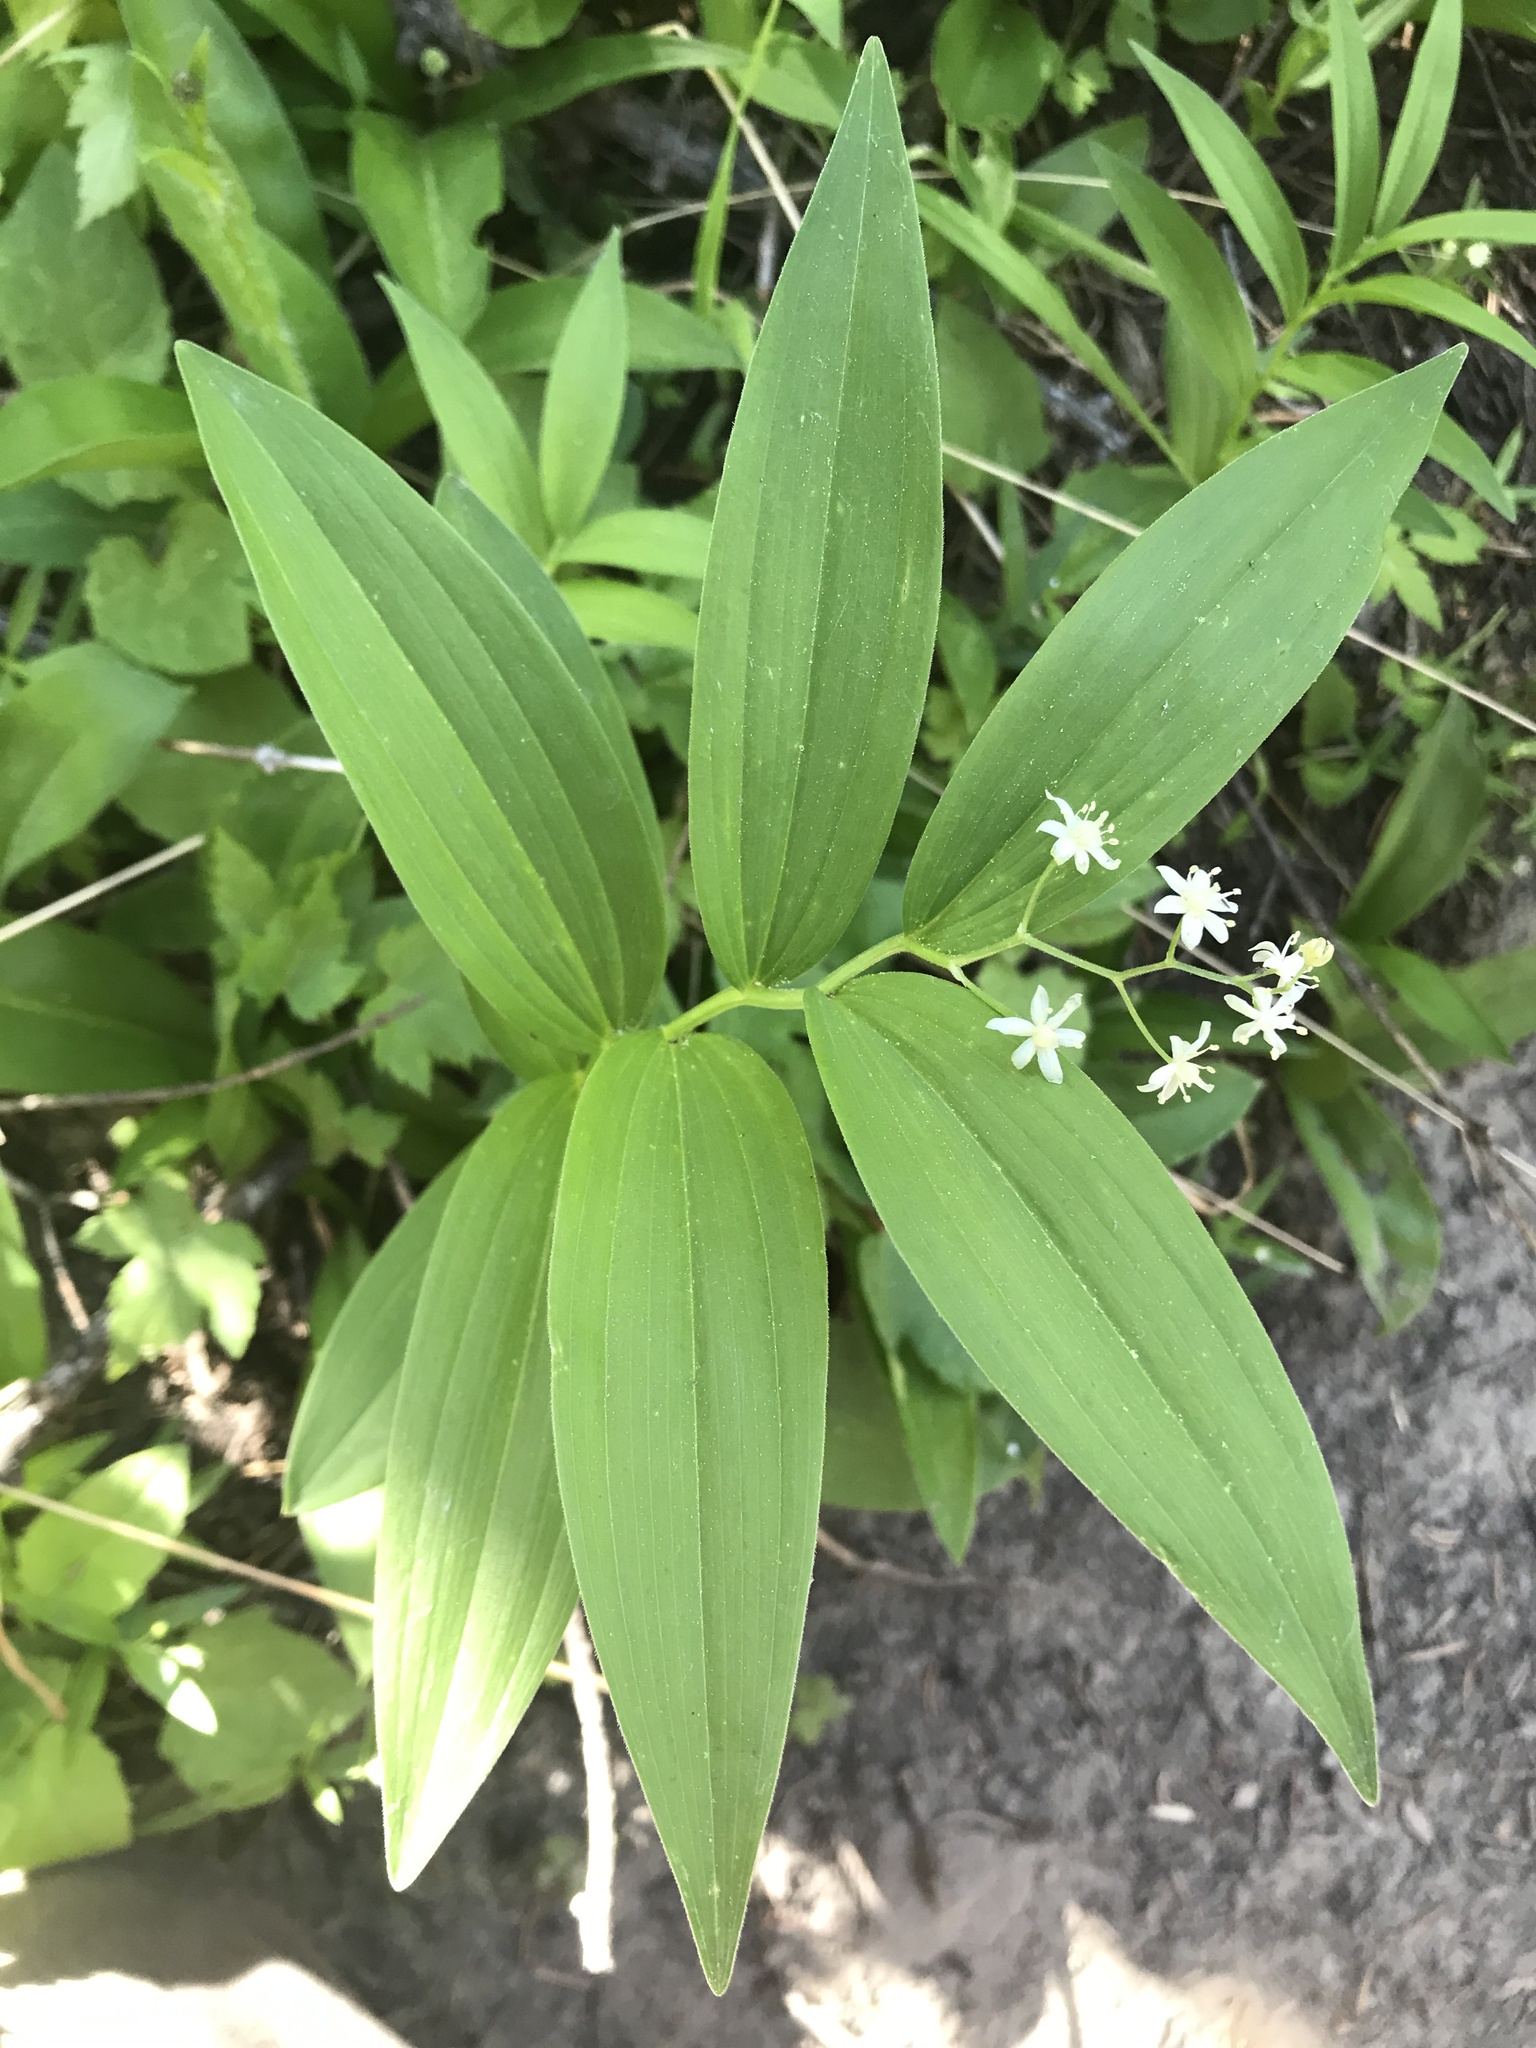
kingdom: Plantae
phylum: Tracheophyta
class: Liliopsida
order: Asparagales
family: Asparagaceae
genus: Maianthemum
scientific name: Maianthemum stellatum
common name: Little false solomon's seal
